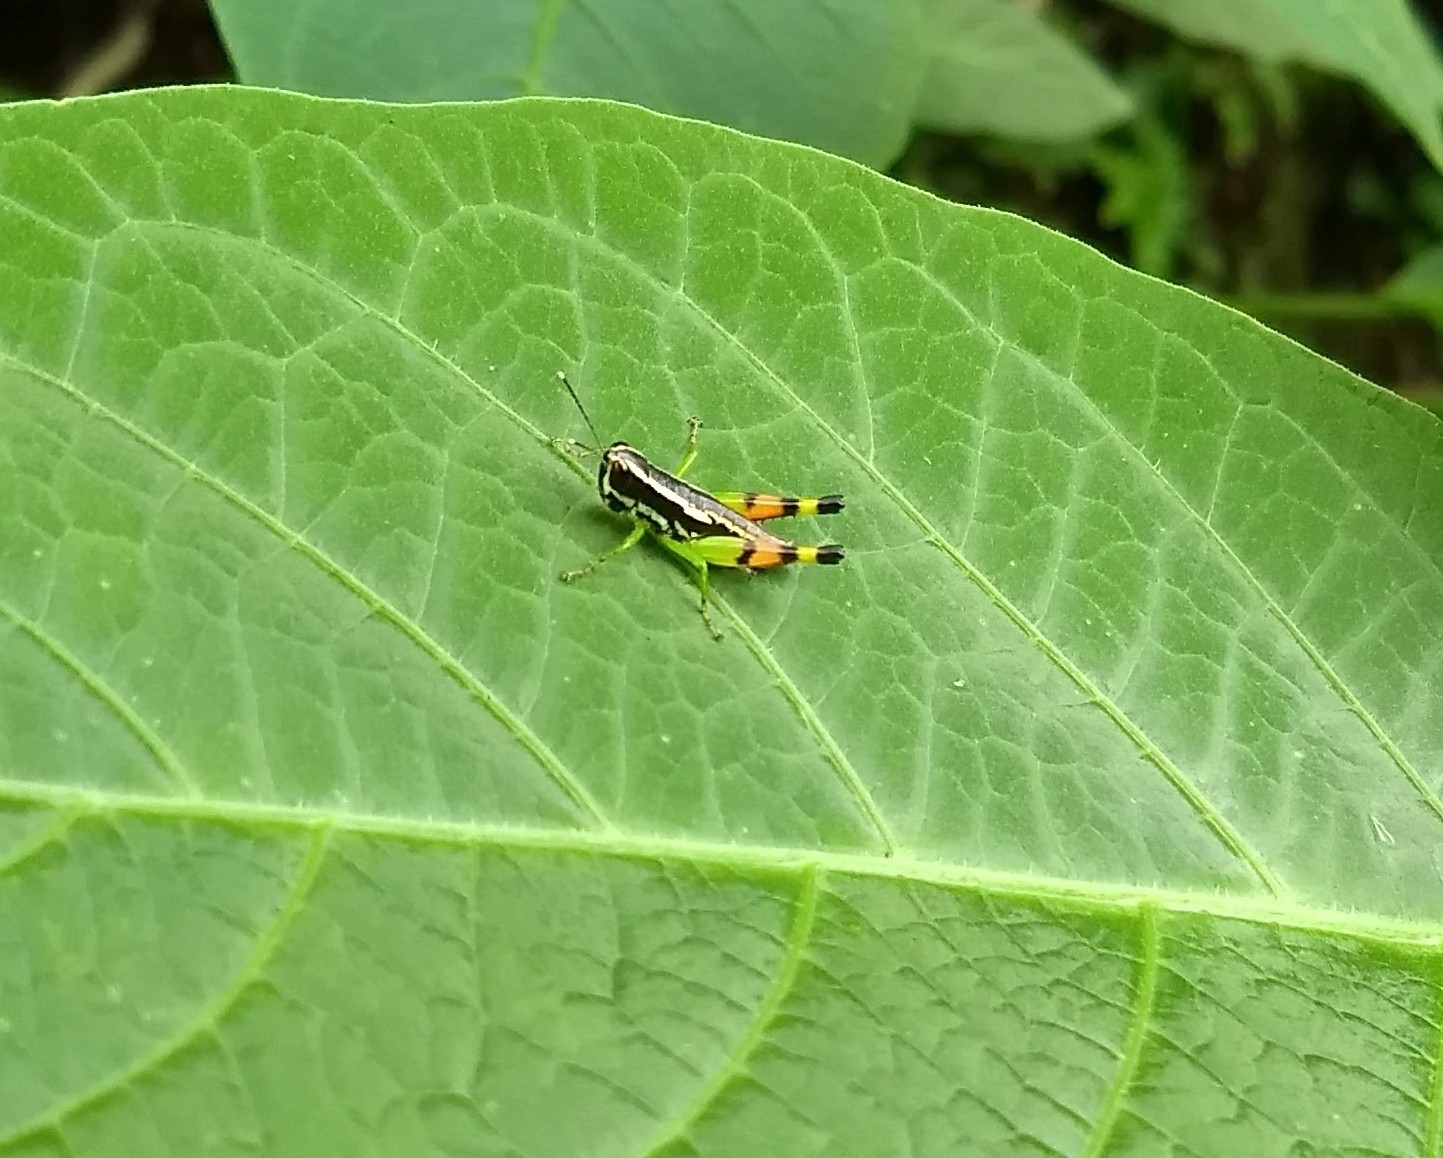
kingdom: Animalia
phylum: Arthropoda
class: Insecta
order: Orthoptera
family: Acrididae
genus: Chitaura
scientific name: Chitaura indica
